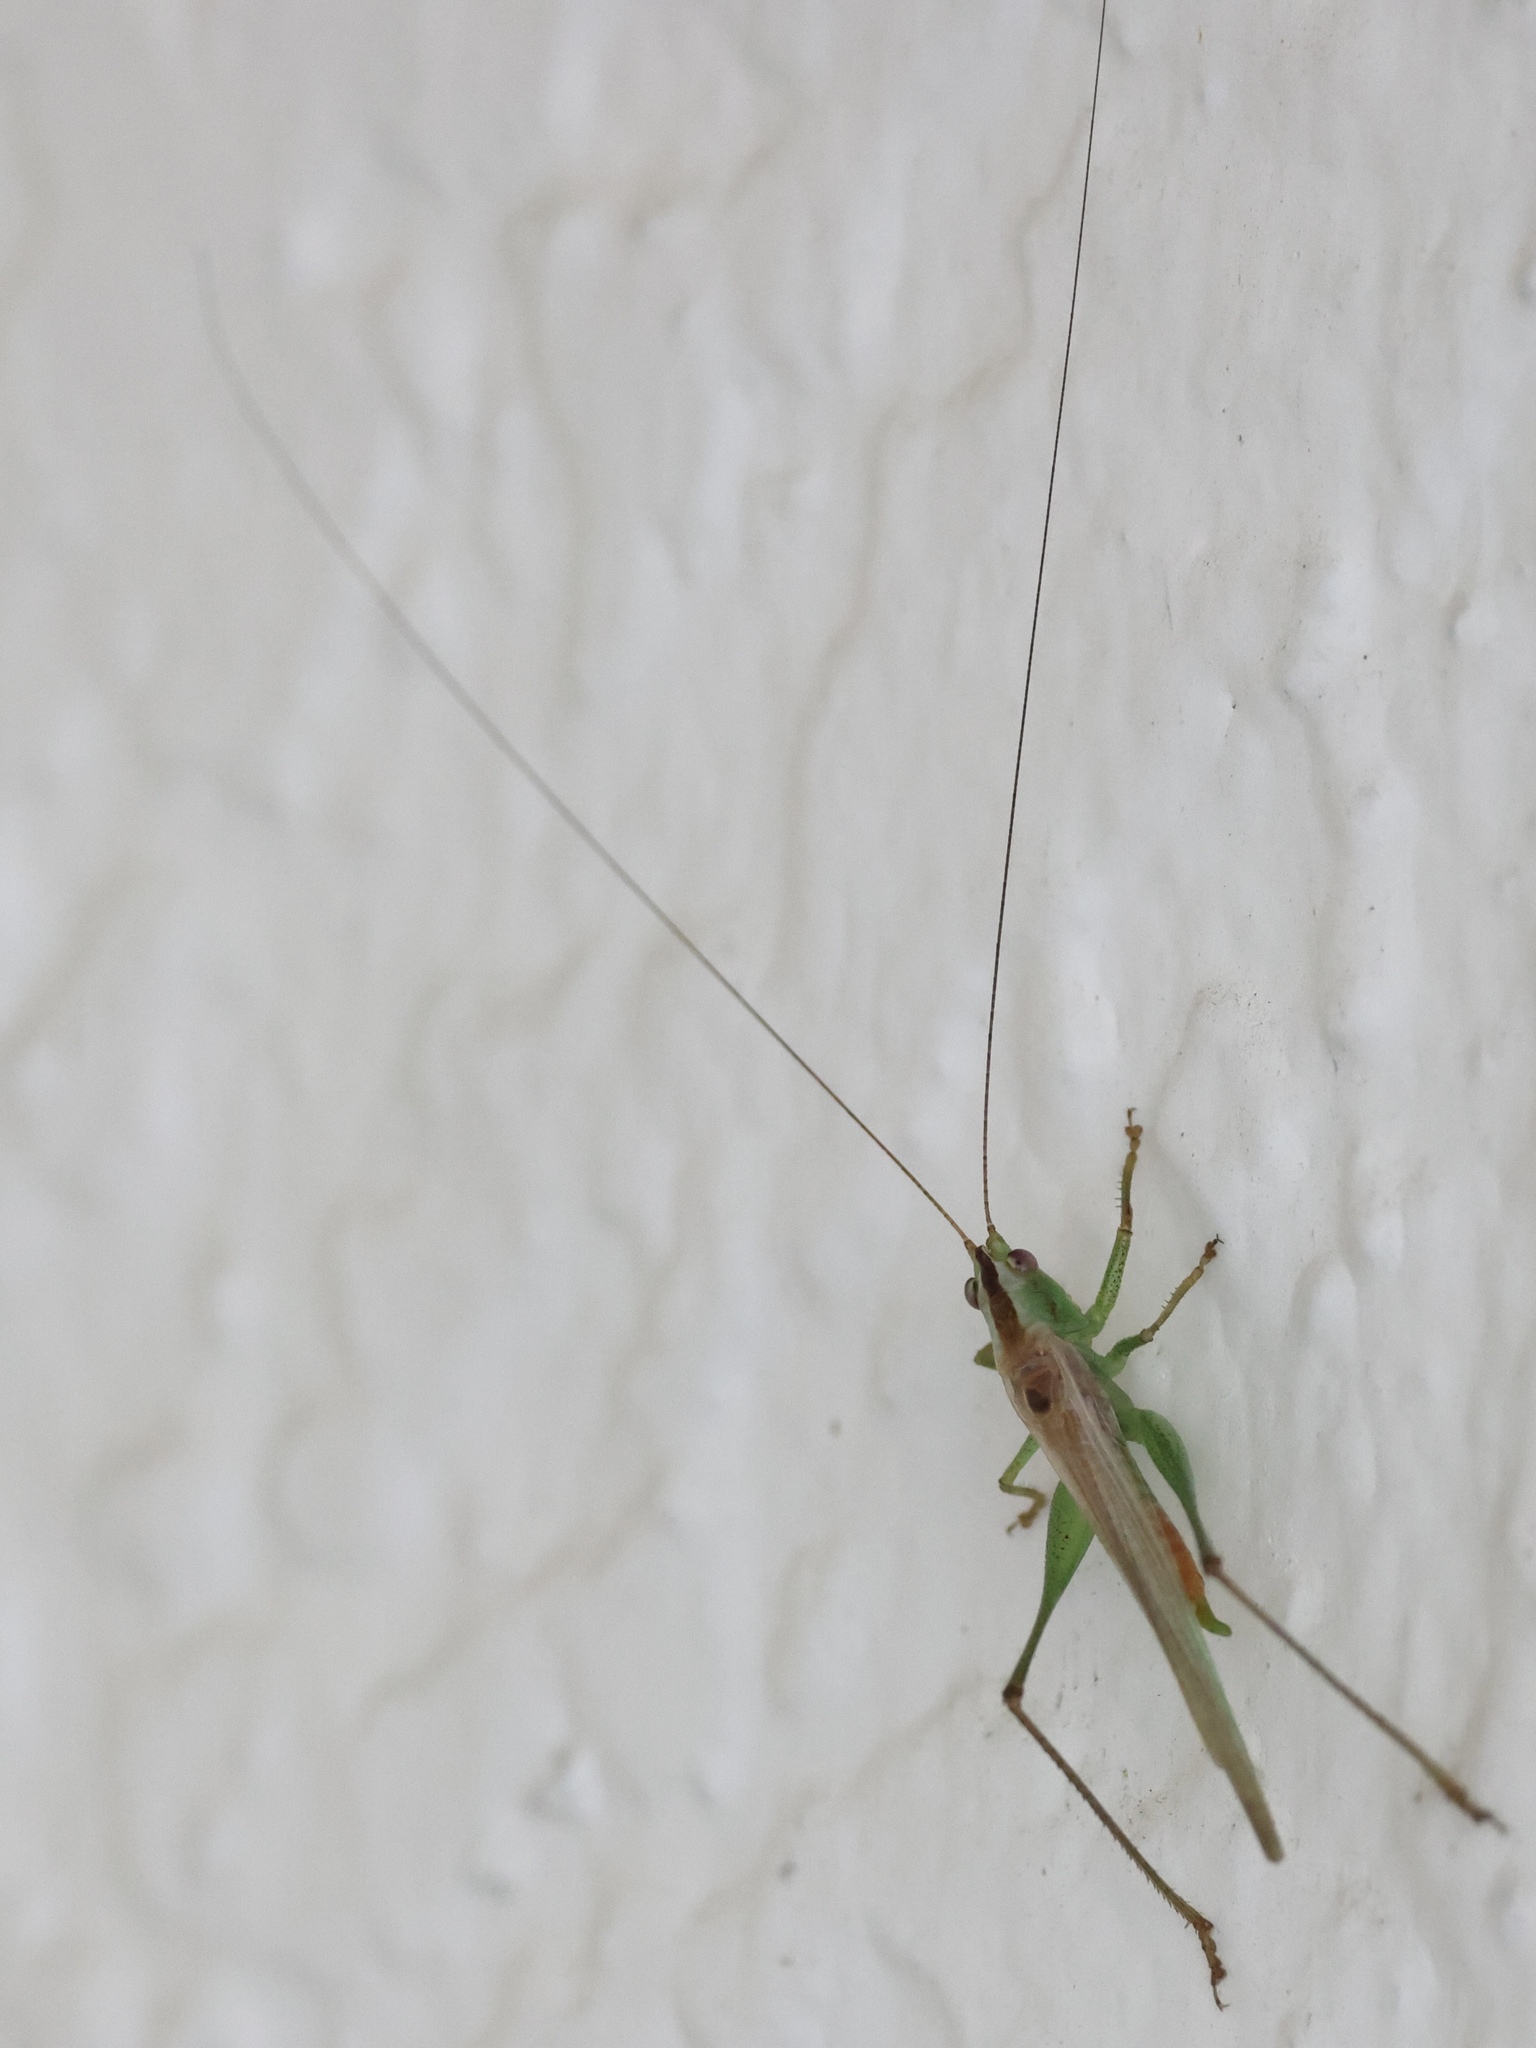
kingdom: Animalia
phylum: Arthropoda
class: Insecta
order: Orthoptera
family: Tettigoniidae
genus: Conocephalus
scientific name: Conocephalus spartinae
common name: Salt marsh meadow katydid
